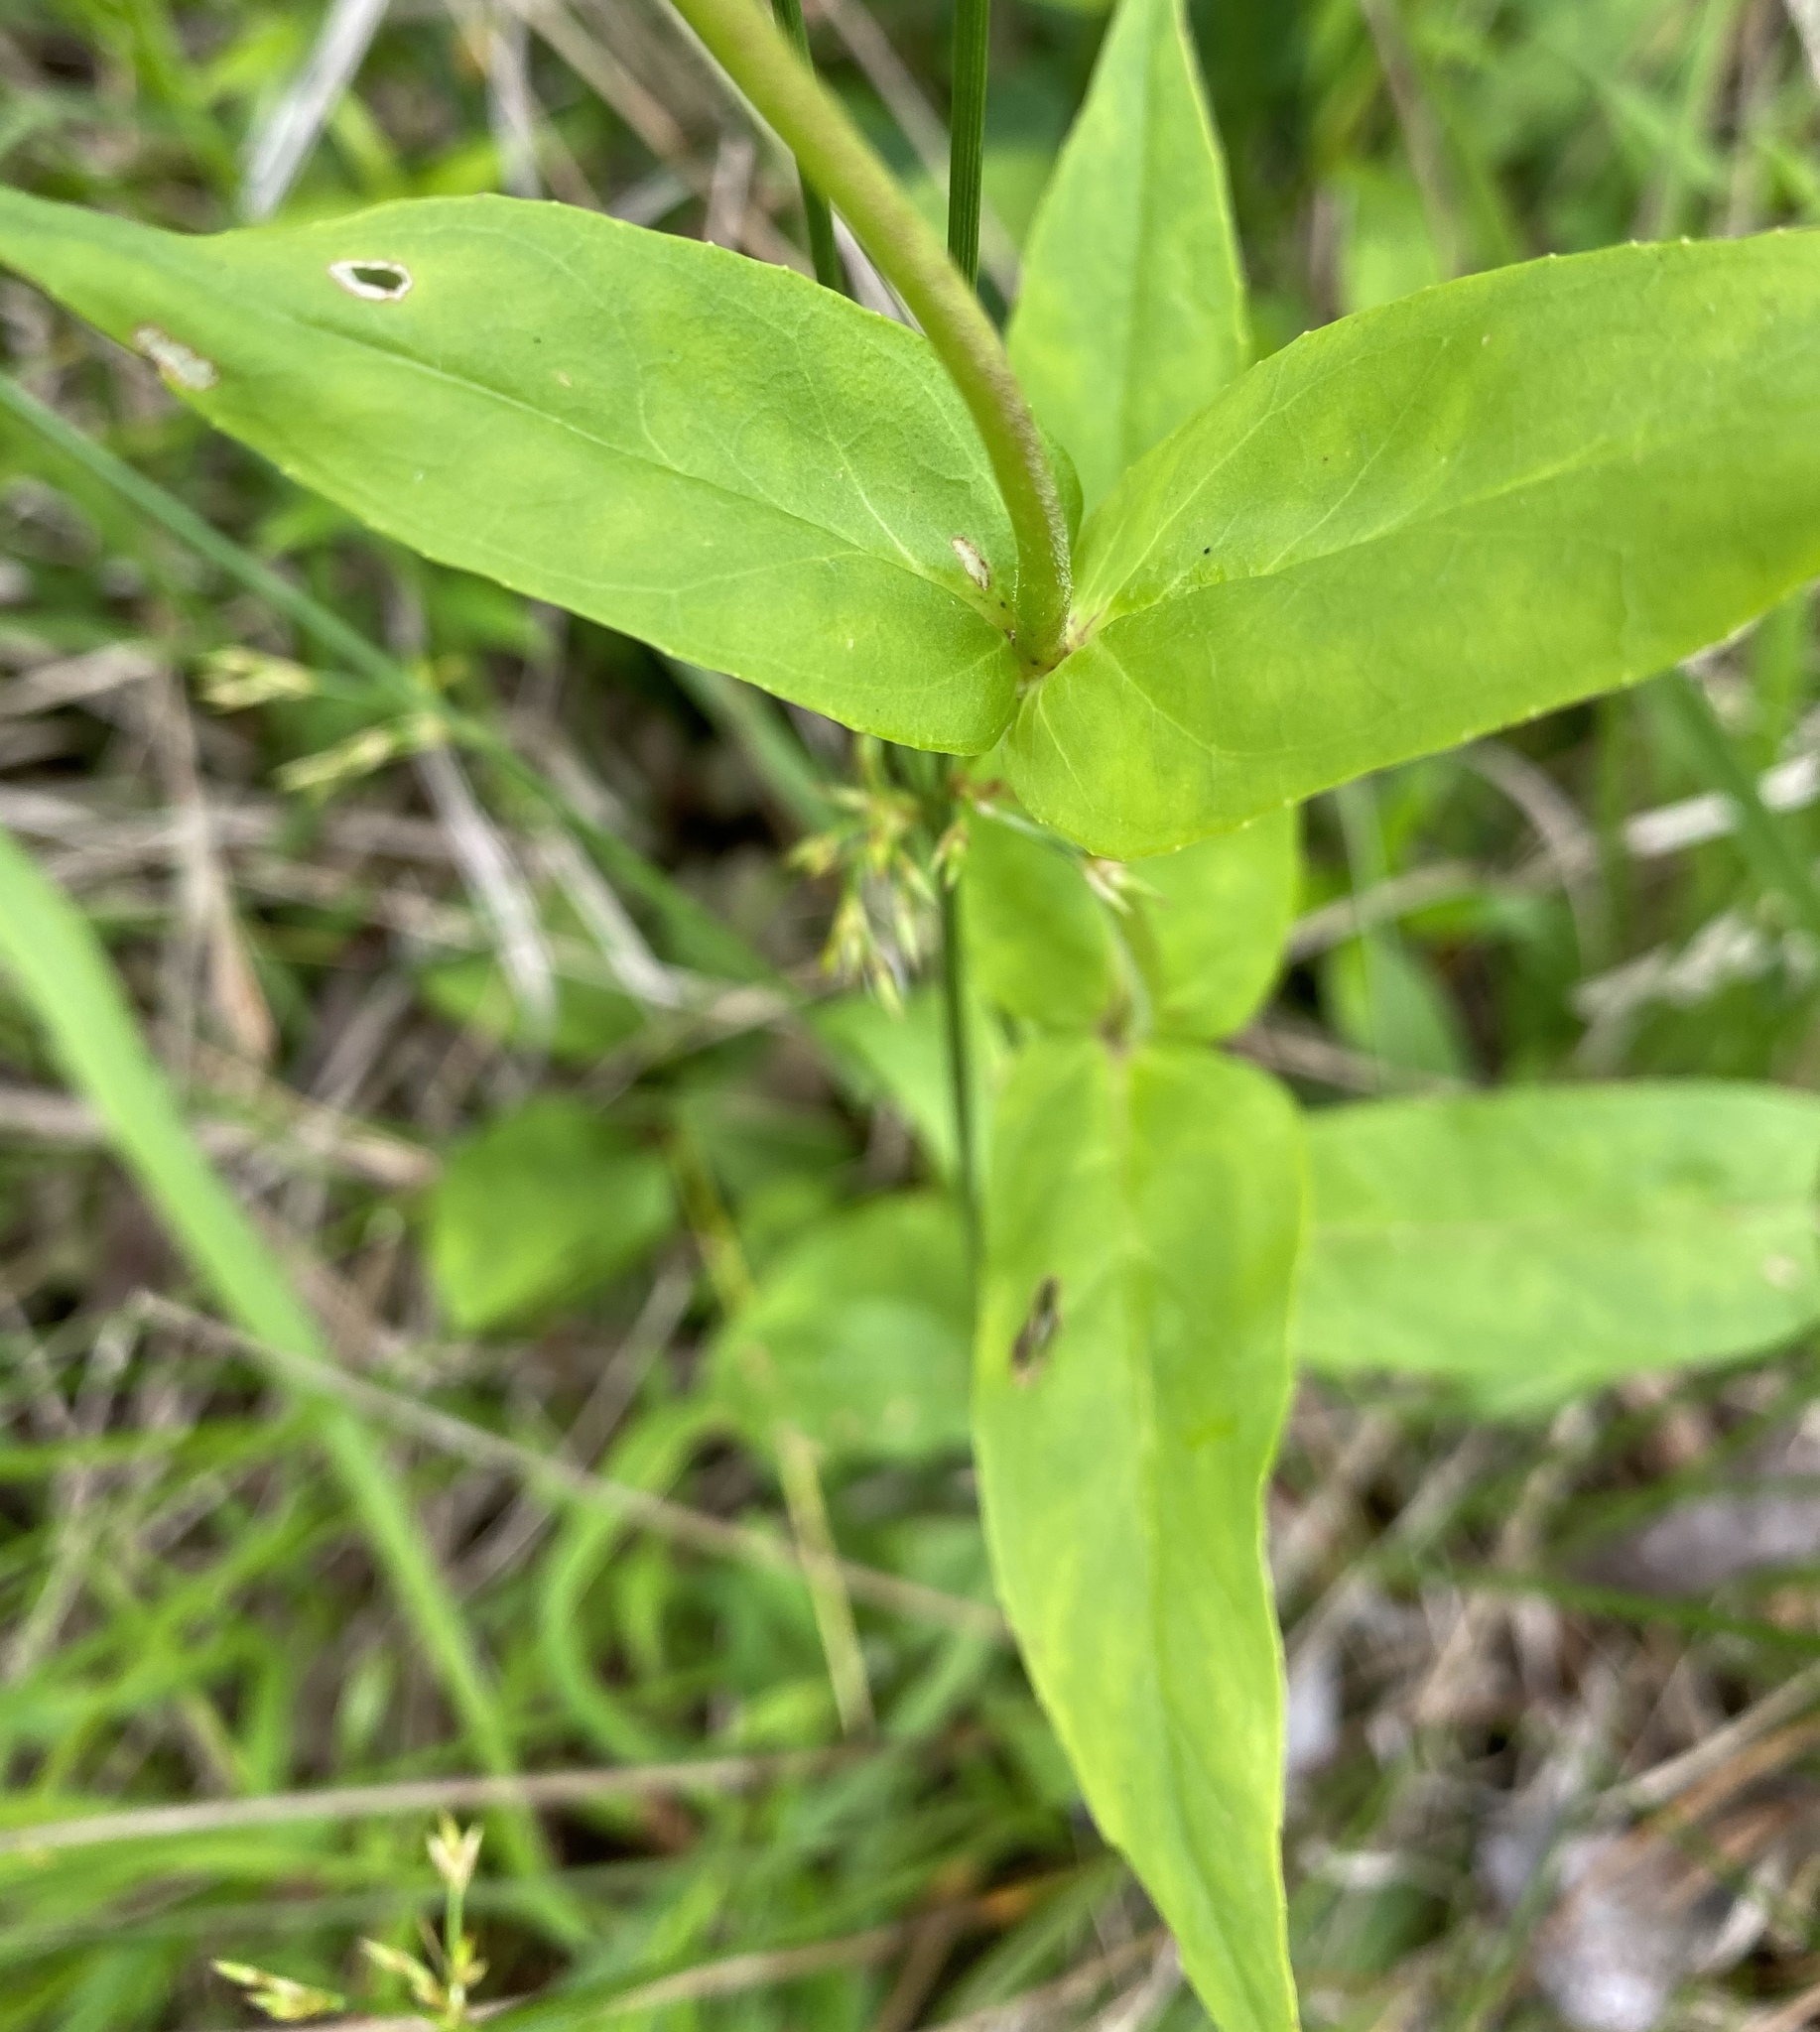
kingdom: Plantae
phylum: Tracheophyta
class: Magnoliopsida
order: Lamiales
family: Plantaginaceae
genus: Penstemon
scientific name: Penstemon digitalis
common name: Foxglove beardtongue
